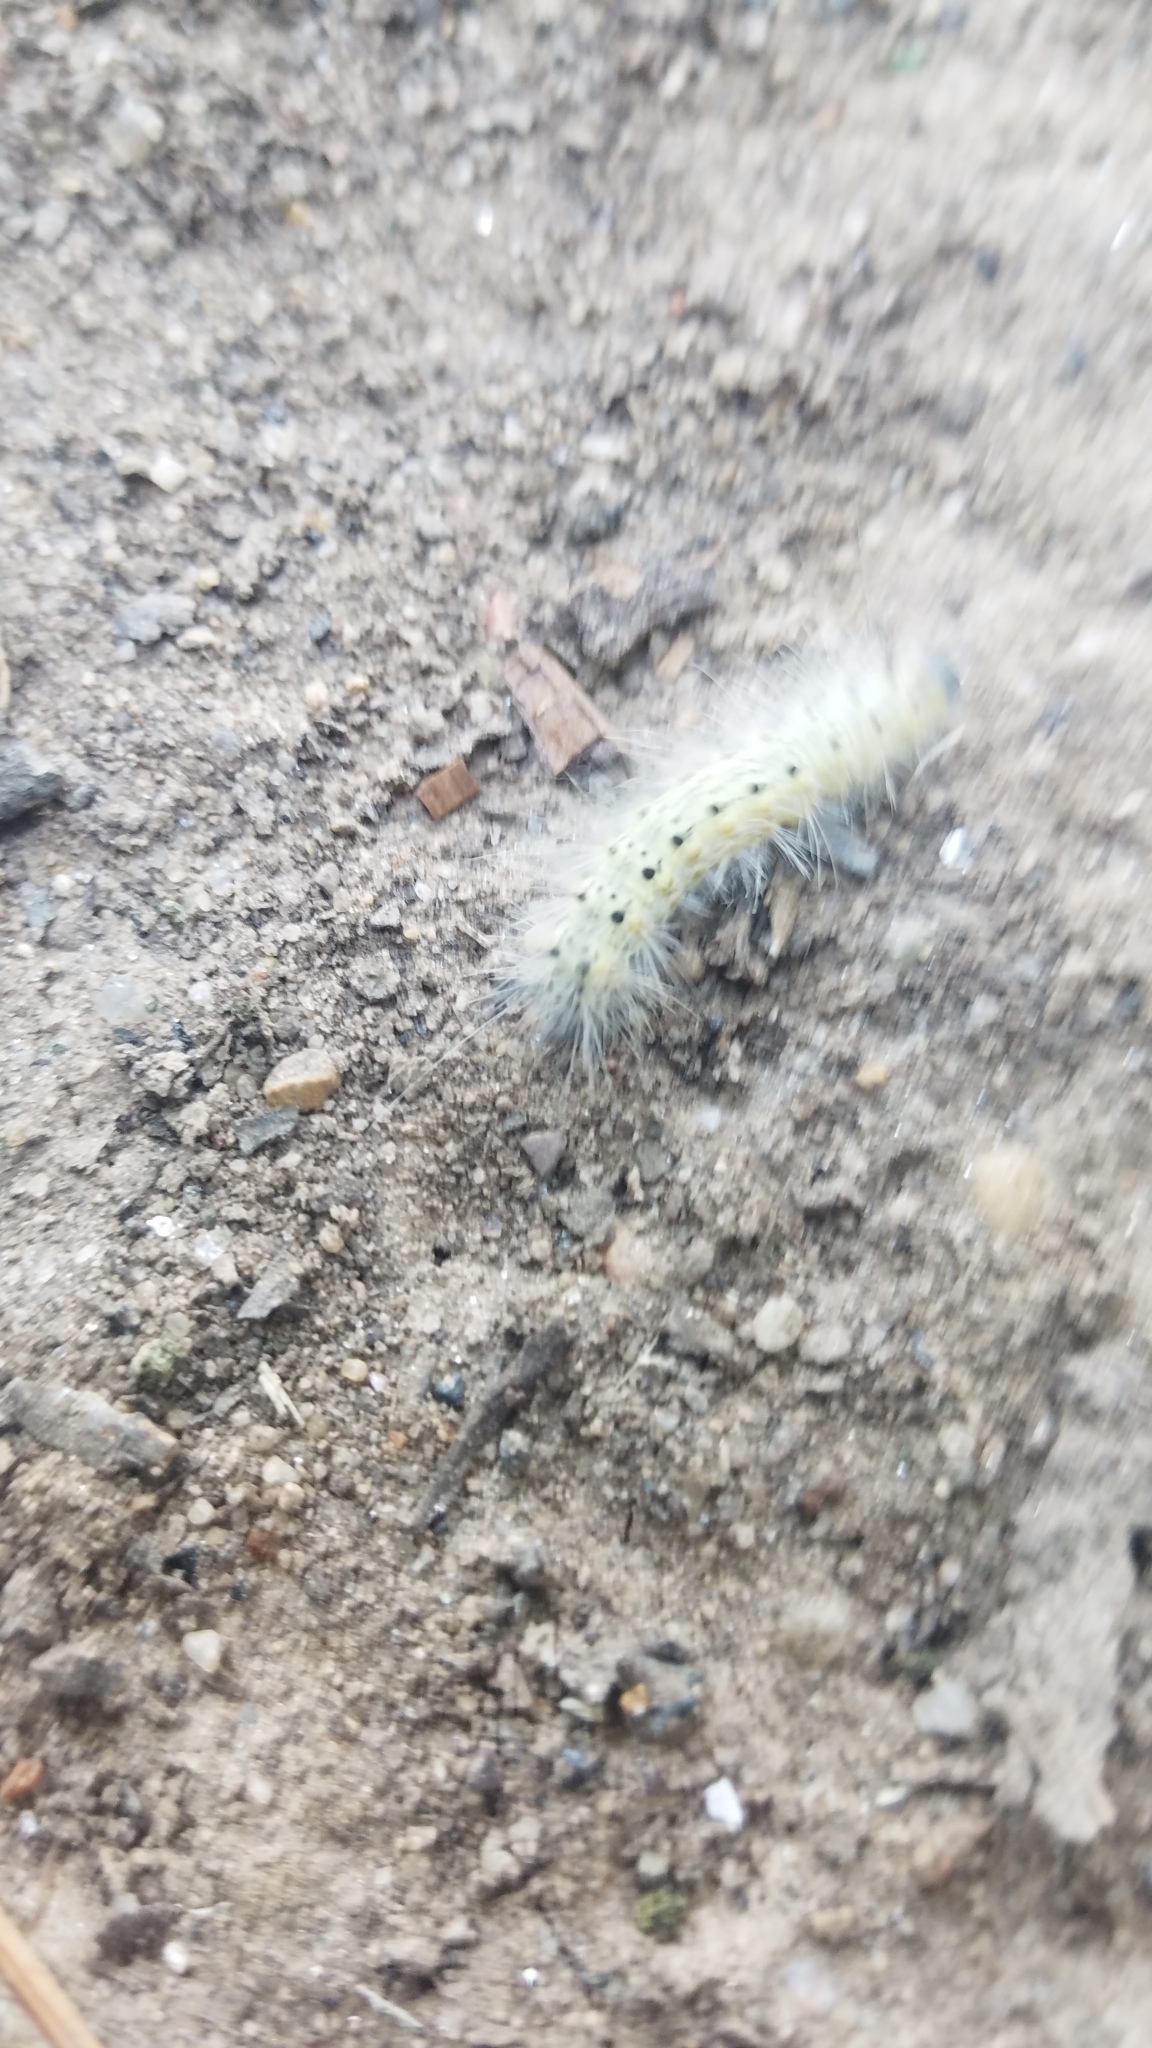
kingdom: Animalia
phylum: Arthropoda
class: Insecta
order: Lepidoptera
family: Erebidae
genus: Hyphantria
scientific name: Hyphantria cunea
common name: American white moth
